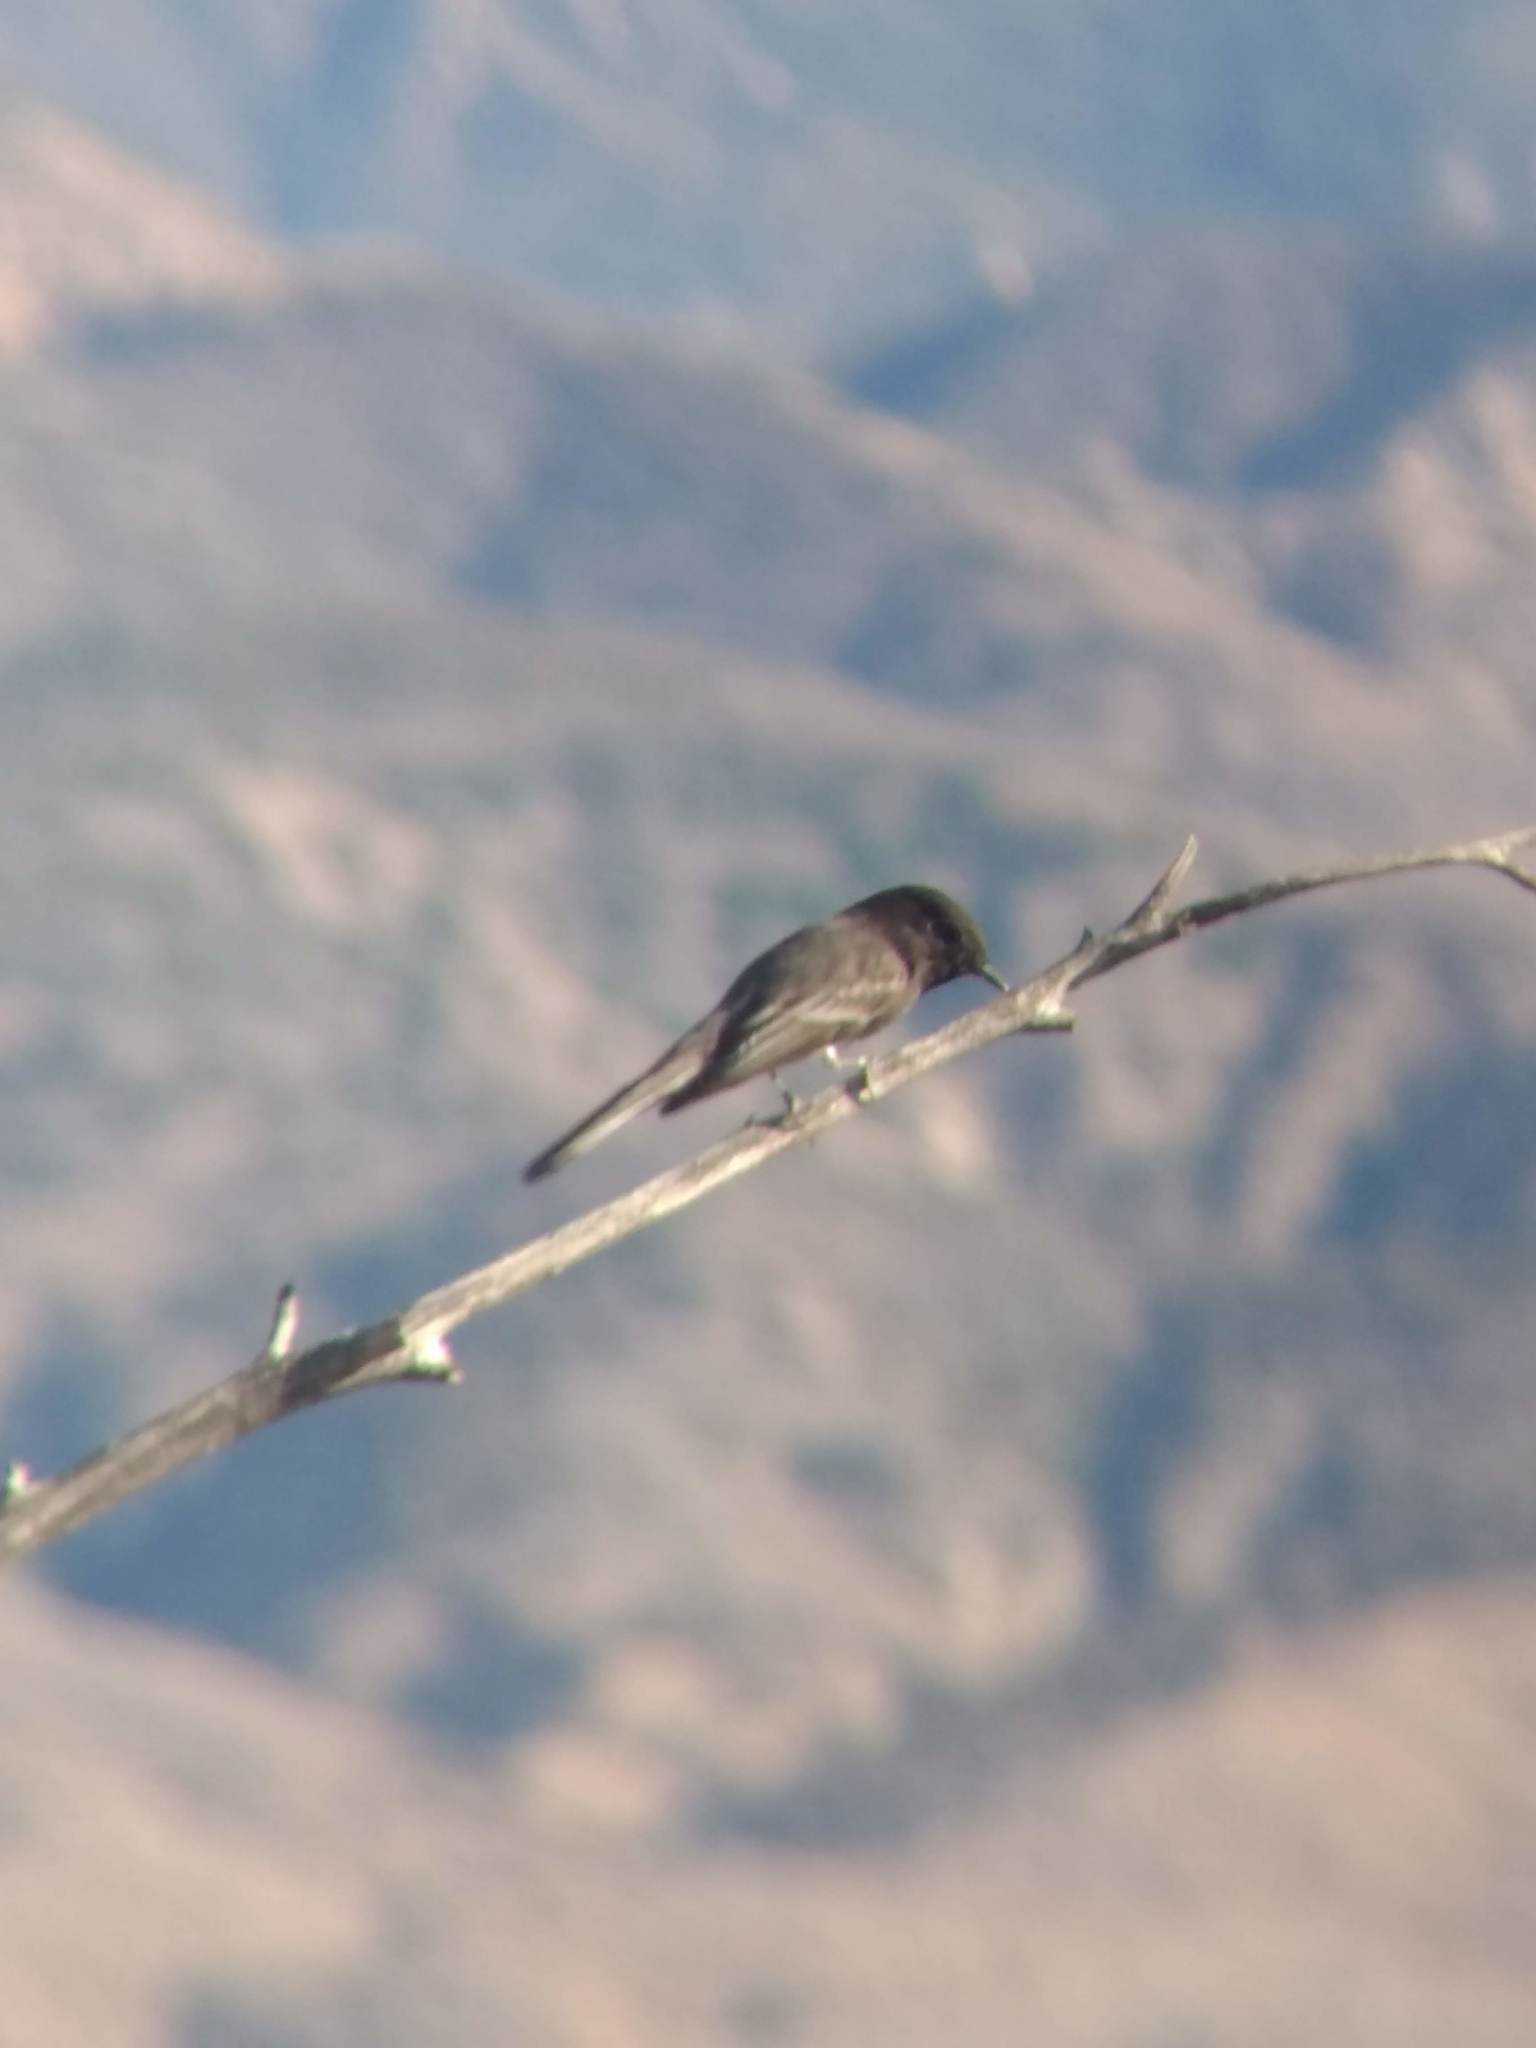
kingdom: Animalia
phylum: Chordata
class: Aves
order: Passeriformes
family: Tyrannidae
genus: Sayornis
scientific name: Sayornis nigricans
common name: Black phoebe
